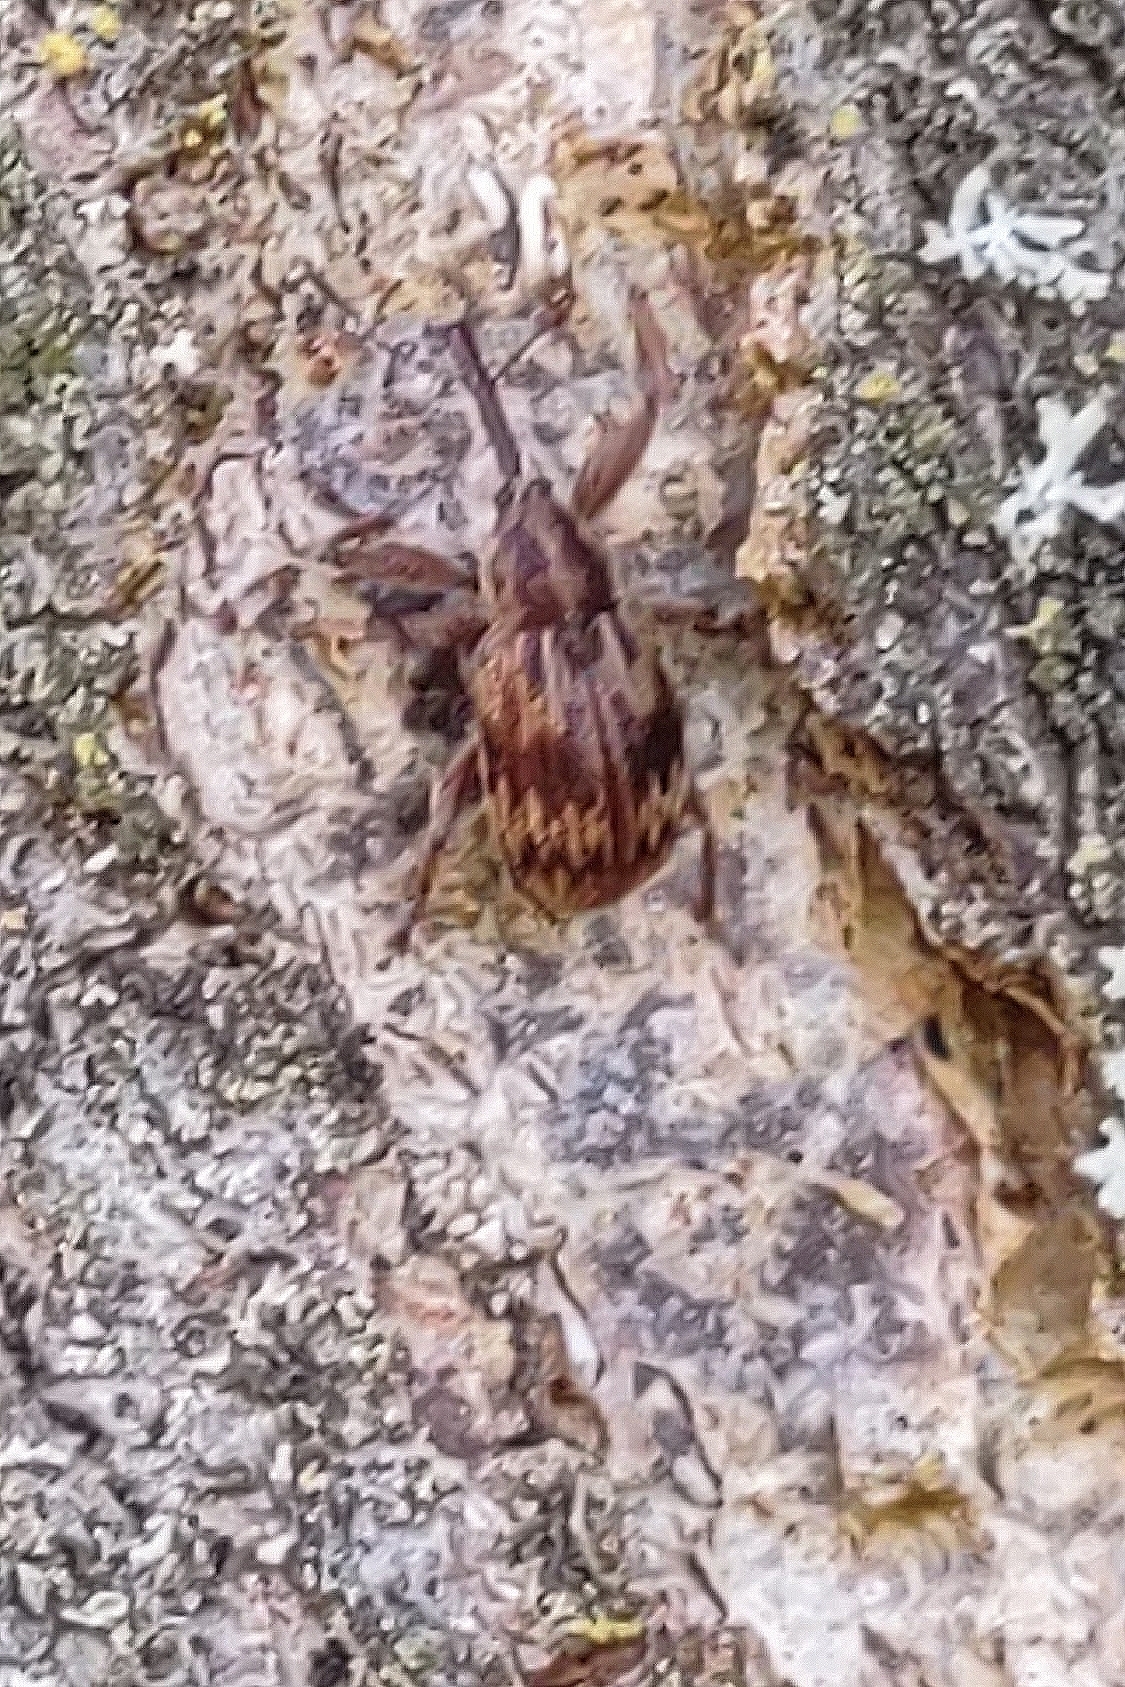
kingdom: Animalia
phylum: Arthropoda
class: Insecta
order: Coleoptera
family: Curculionidae
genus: Anthonomus
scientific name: Anthonomus rectirostris
